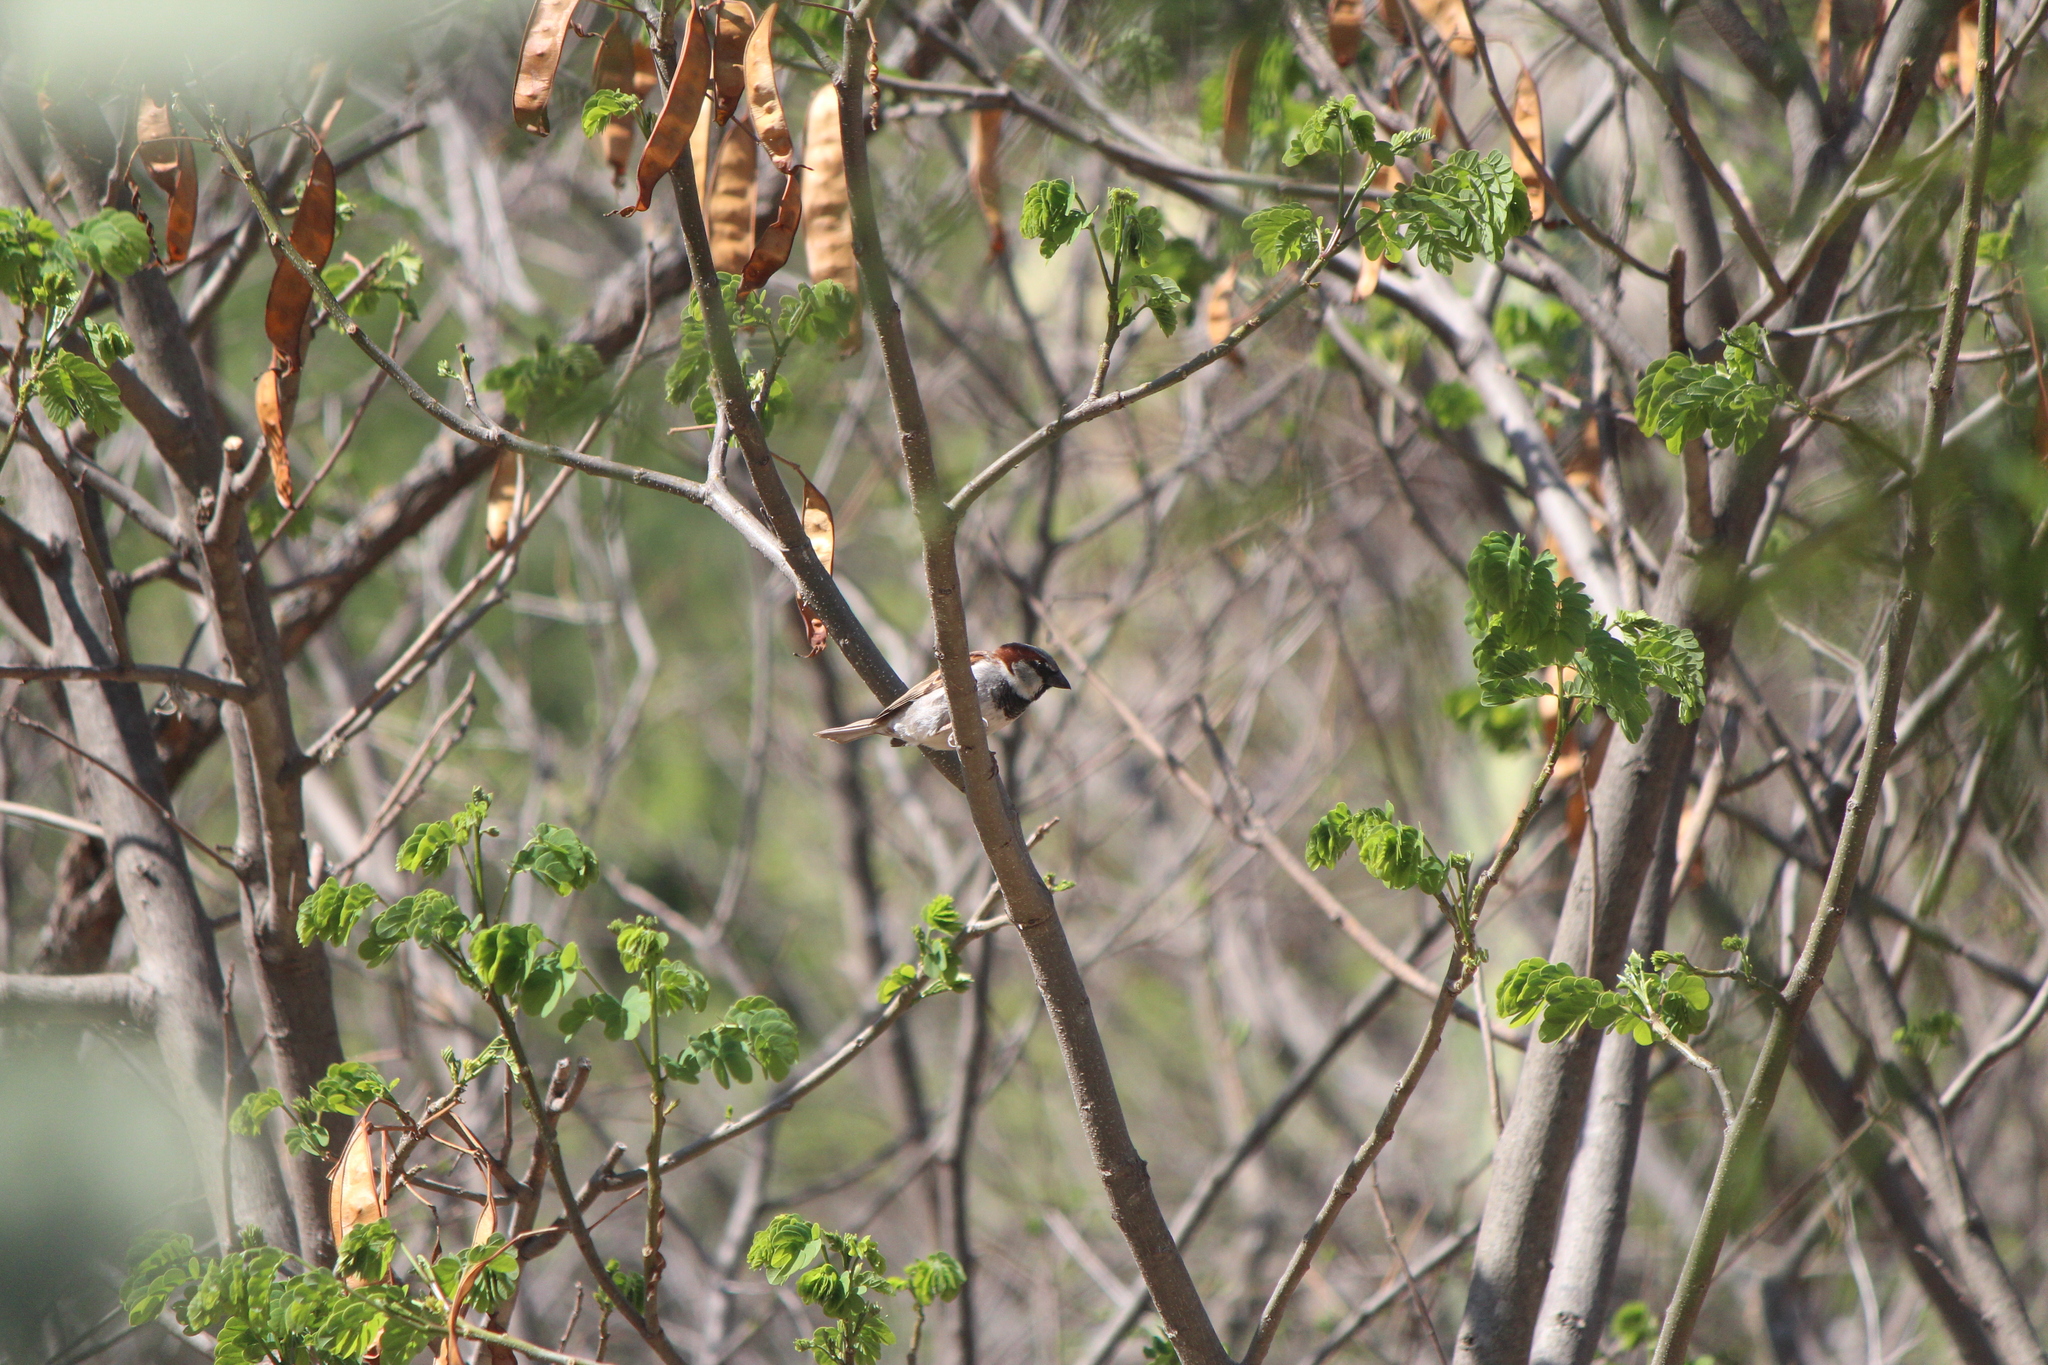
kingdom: Animalia
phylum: Chordata
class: Aves
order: Passeriformes
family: Passeridae
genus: Passer
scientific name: Passer domesticus
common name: House sparrow
